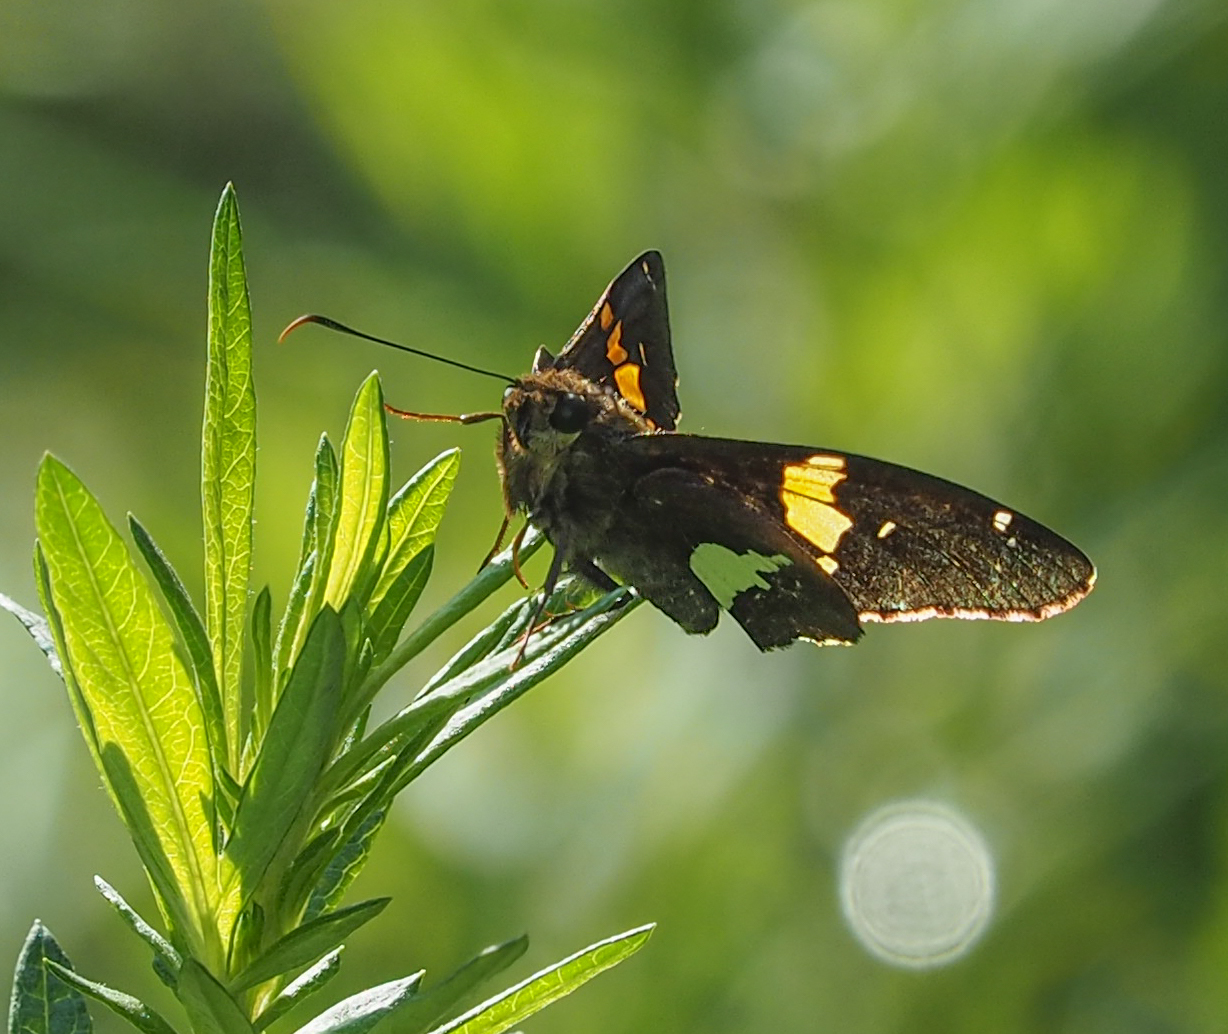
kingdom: Animalia
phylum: Arthropoda
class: Insecta
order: Lepidoptera
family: Hesperiidae
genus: Epargyreus
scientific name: Epargyreus clarus
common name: Silver-spotted skipper
